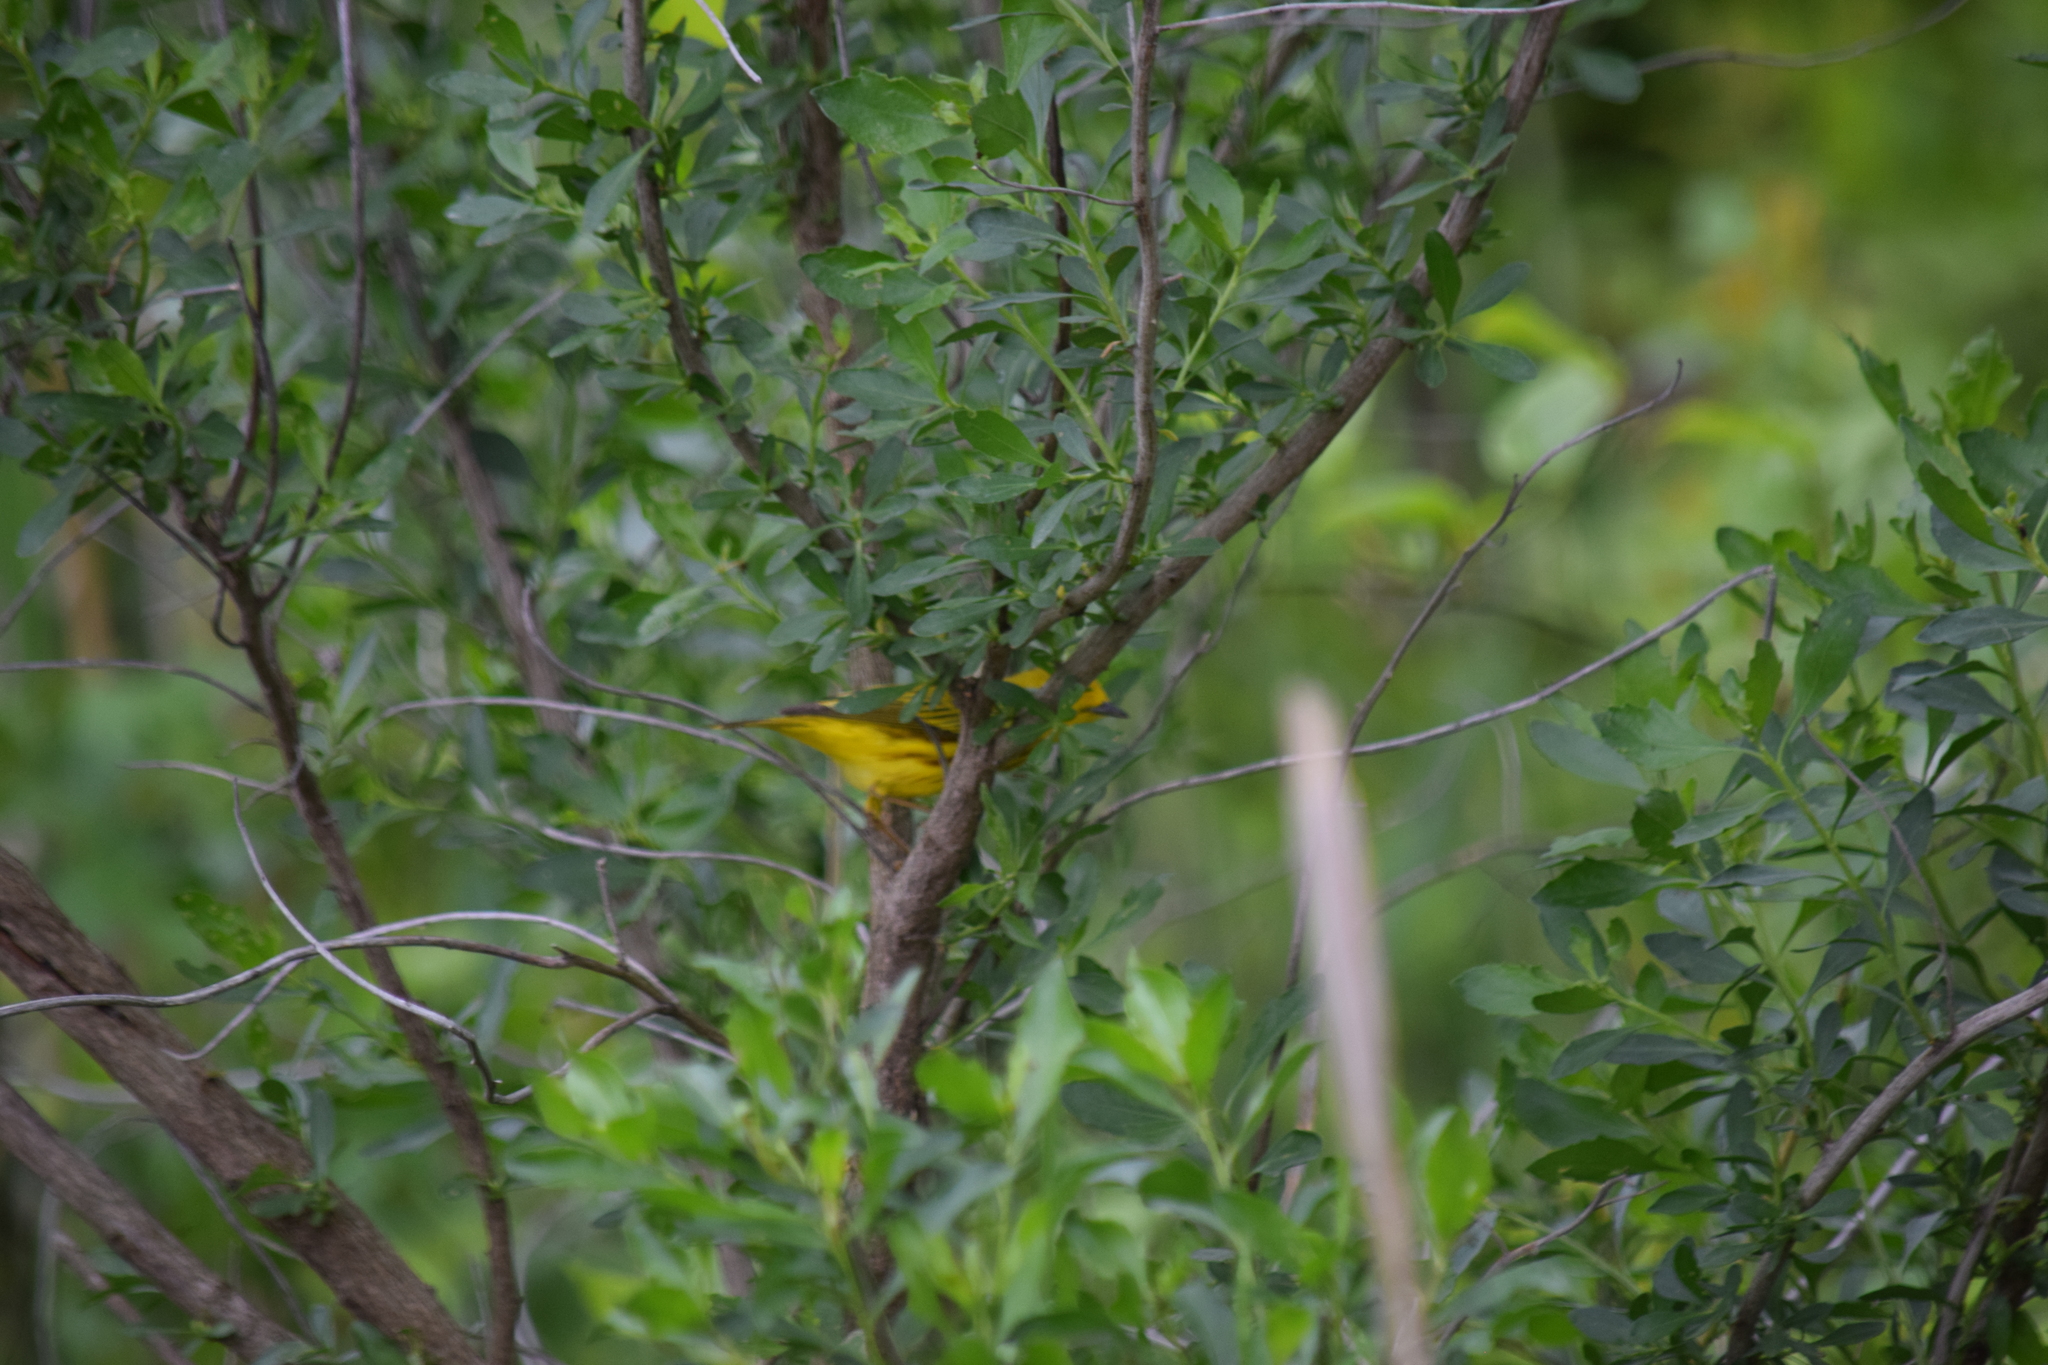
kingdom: Animalia
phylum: Chordata
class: Aves
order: Passeriformes
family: Parulidae
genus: Setophaga
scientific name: Setophaga petechia
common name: Yellow warbler
